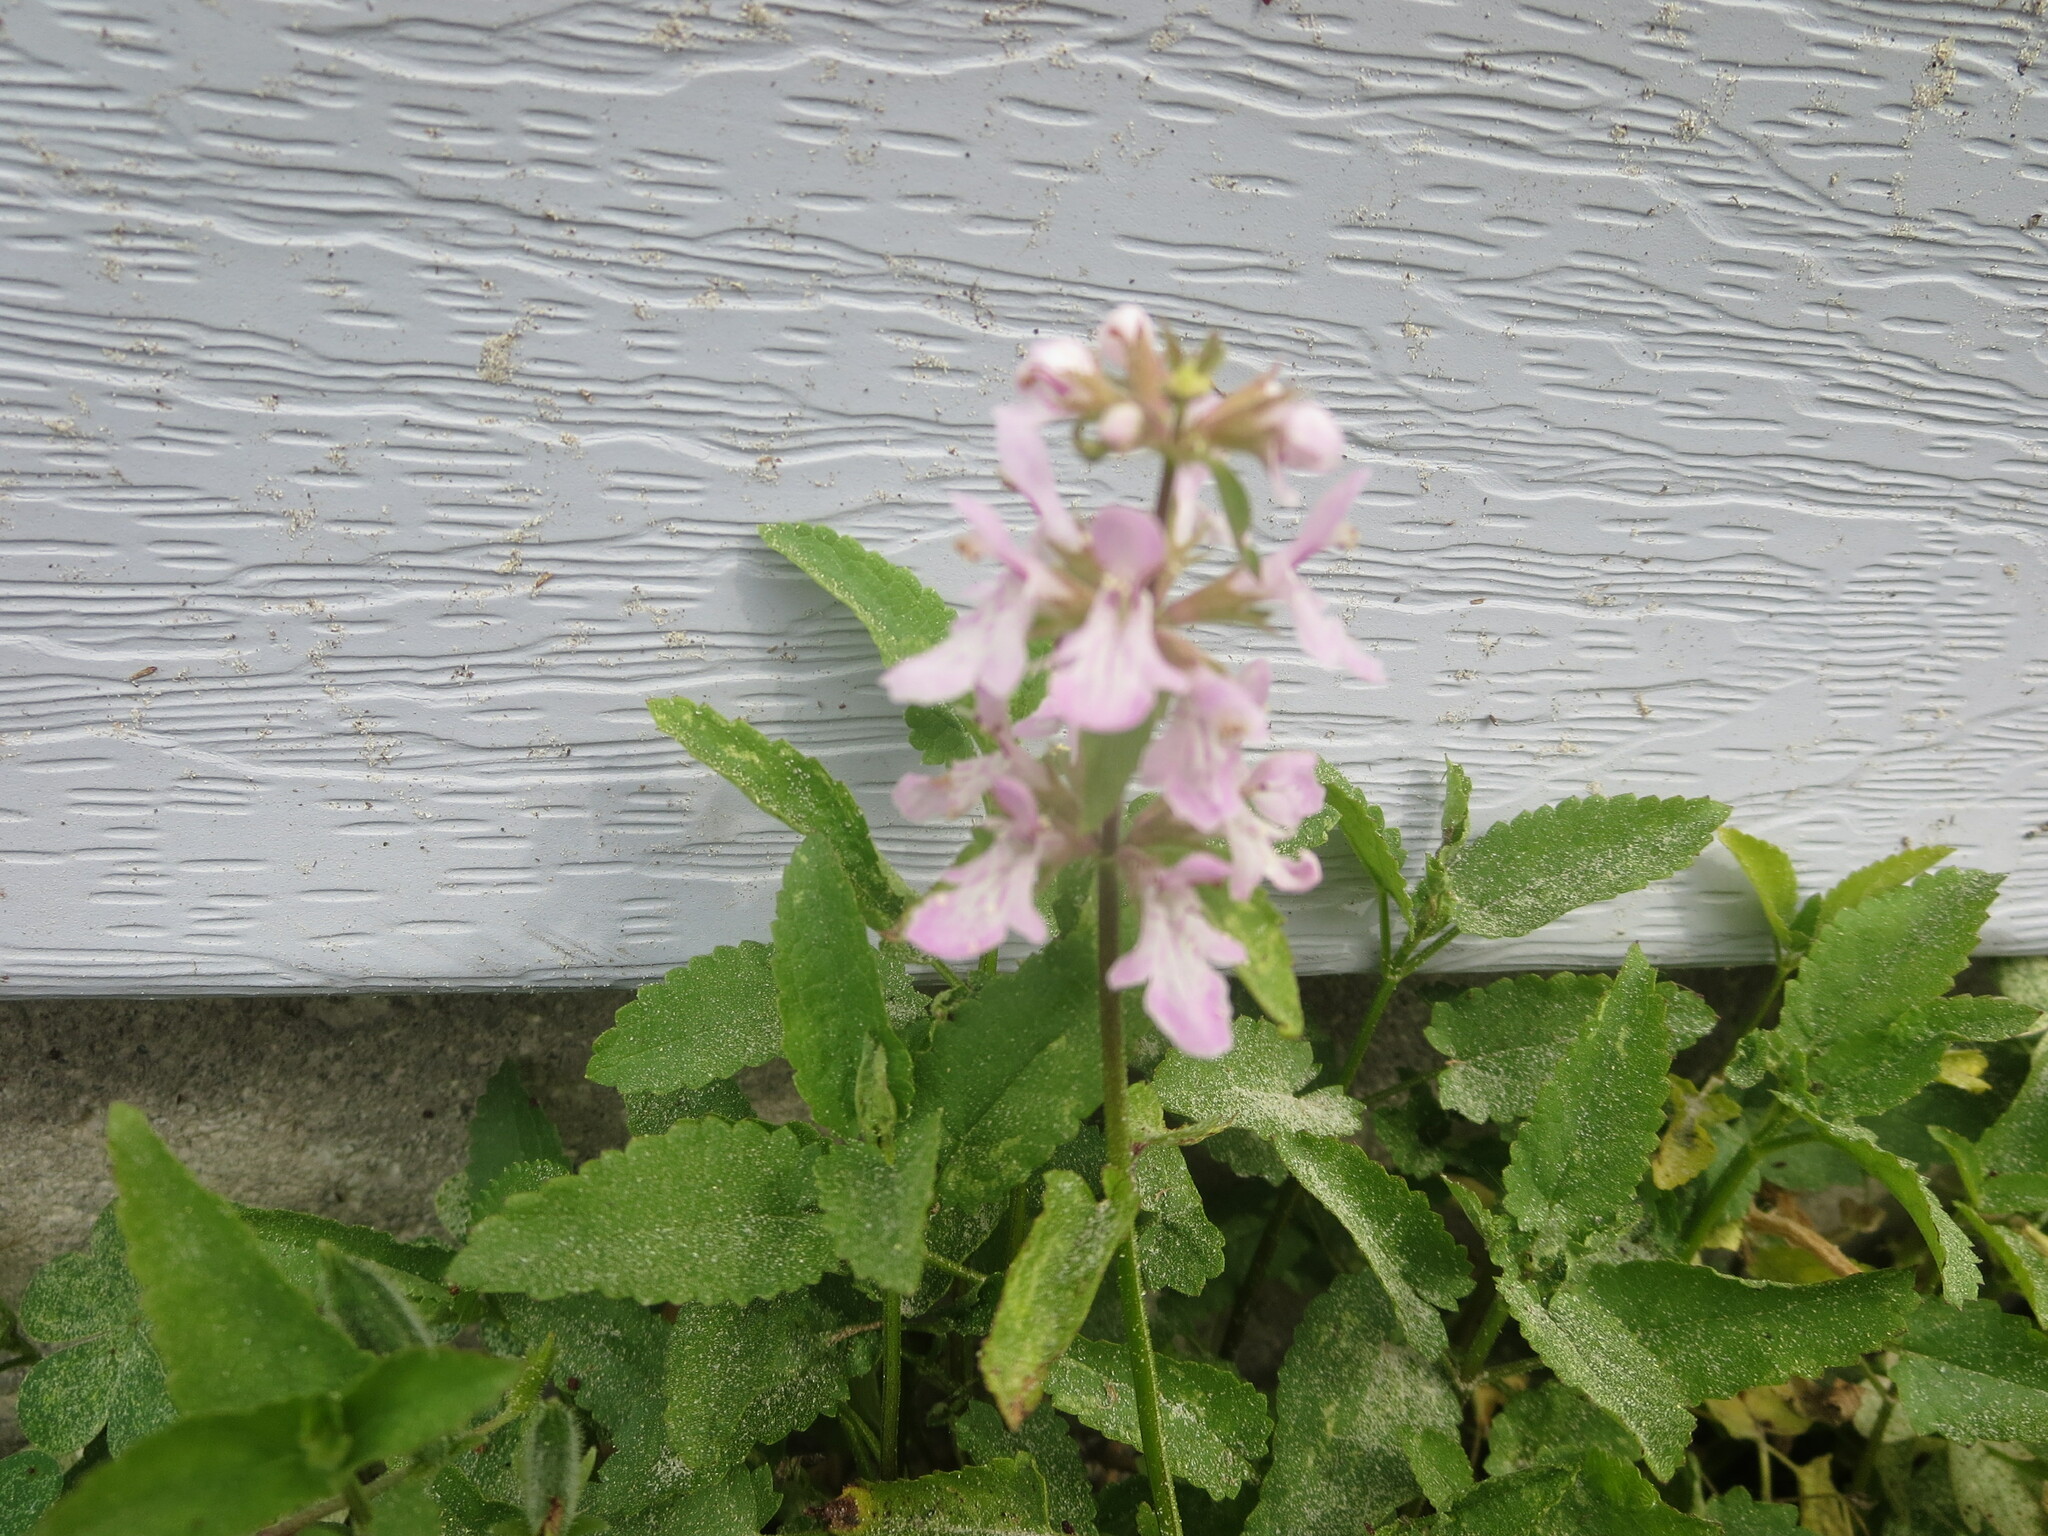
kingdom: Plantae
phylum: Tracheophyta
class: Magnoliopsida
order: Lamiales
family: Lamiaceae
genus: Stachys
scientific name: Stachys floridana
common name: Florida betony
